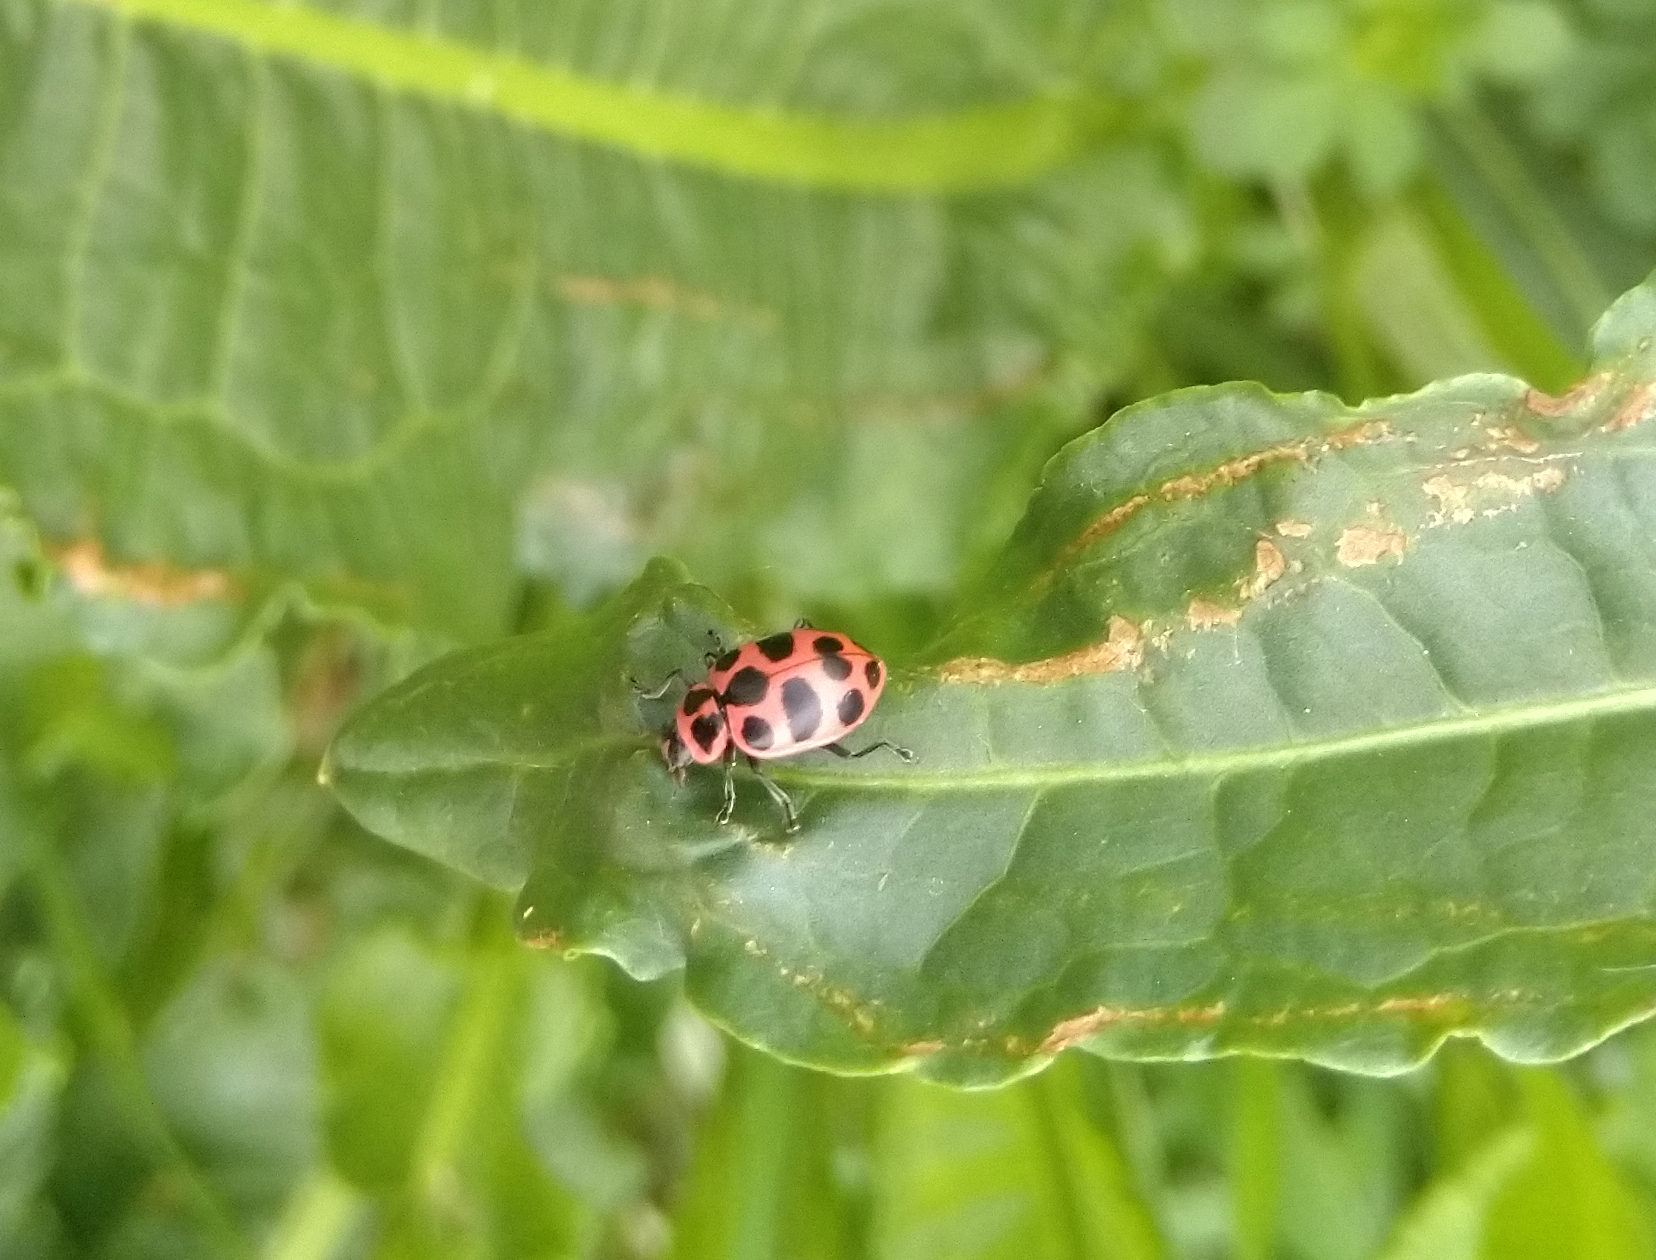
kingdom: Animalia
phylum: Arthropoda
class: Insecta
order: Coleoptera
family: Coccinellidae
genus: Coleomegilla
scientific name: Coleomegilla maculata
